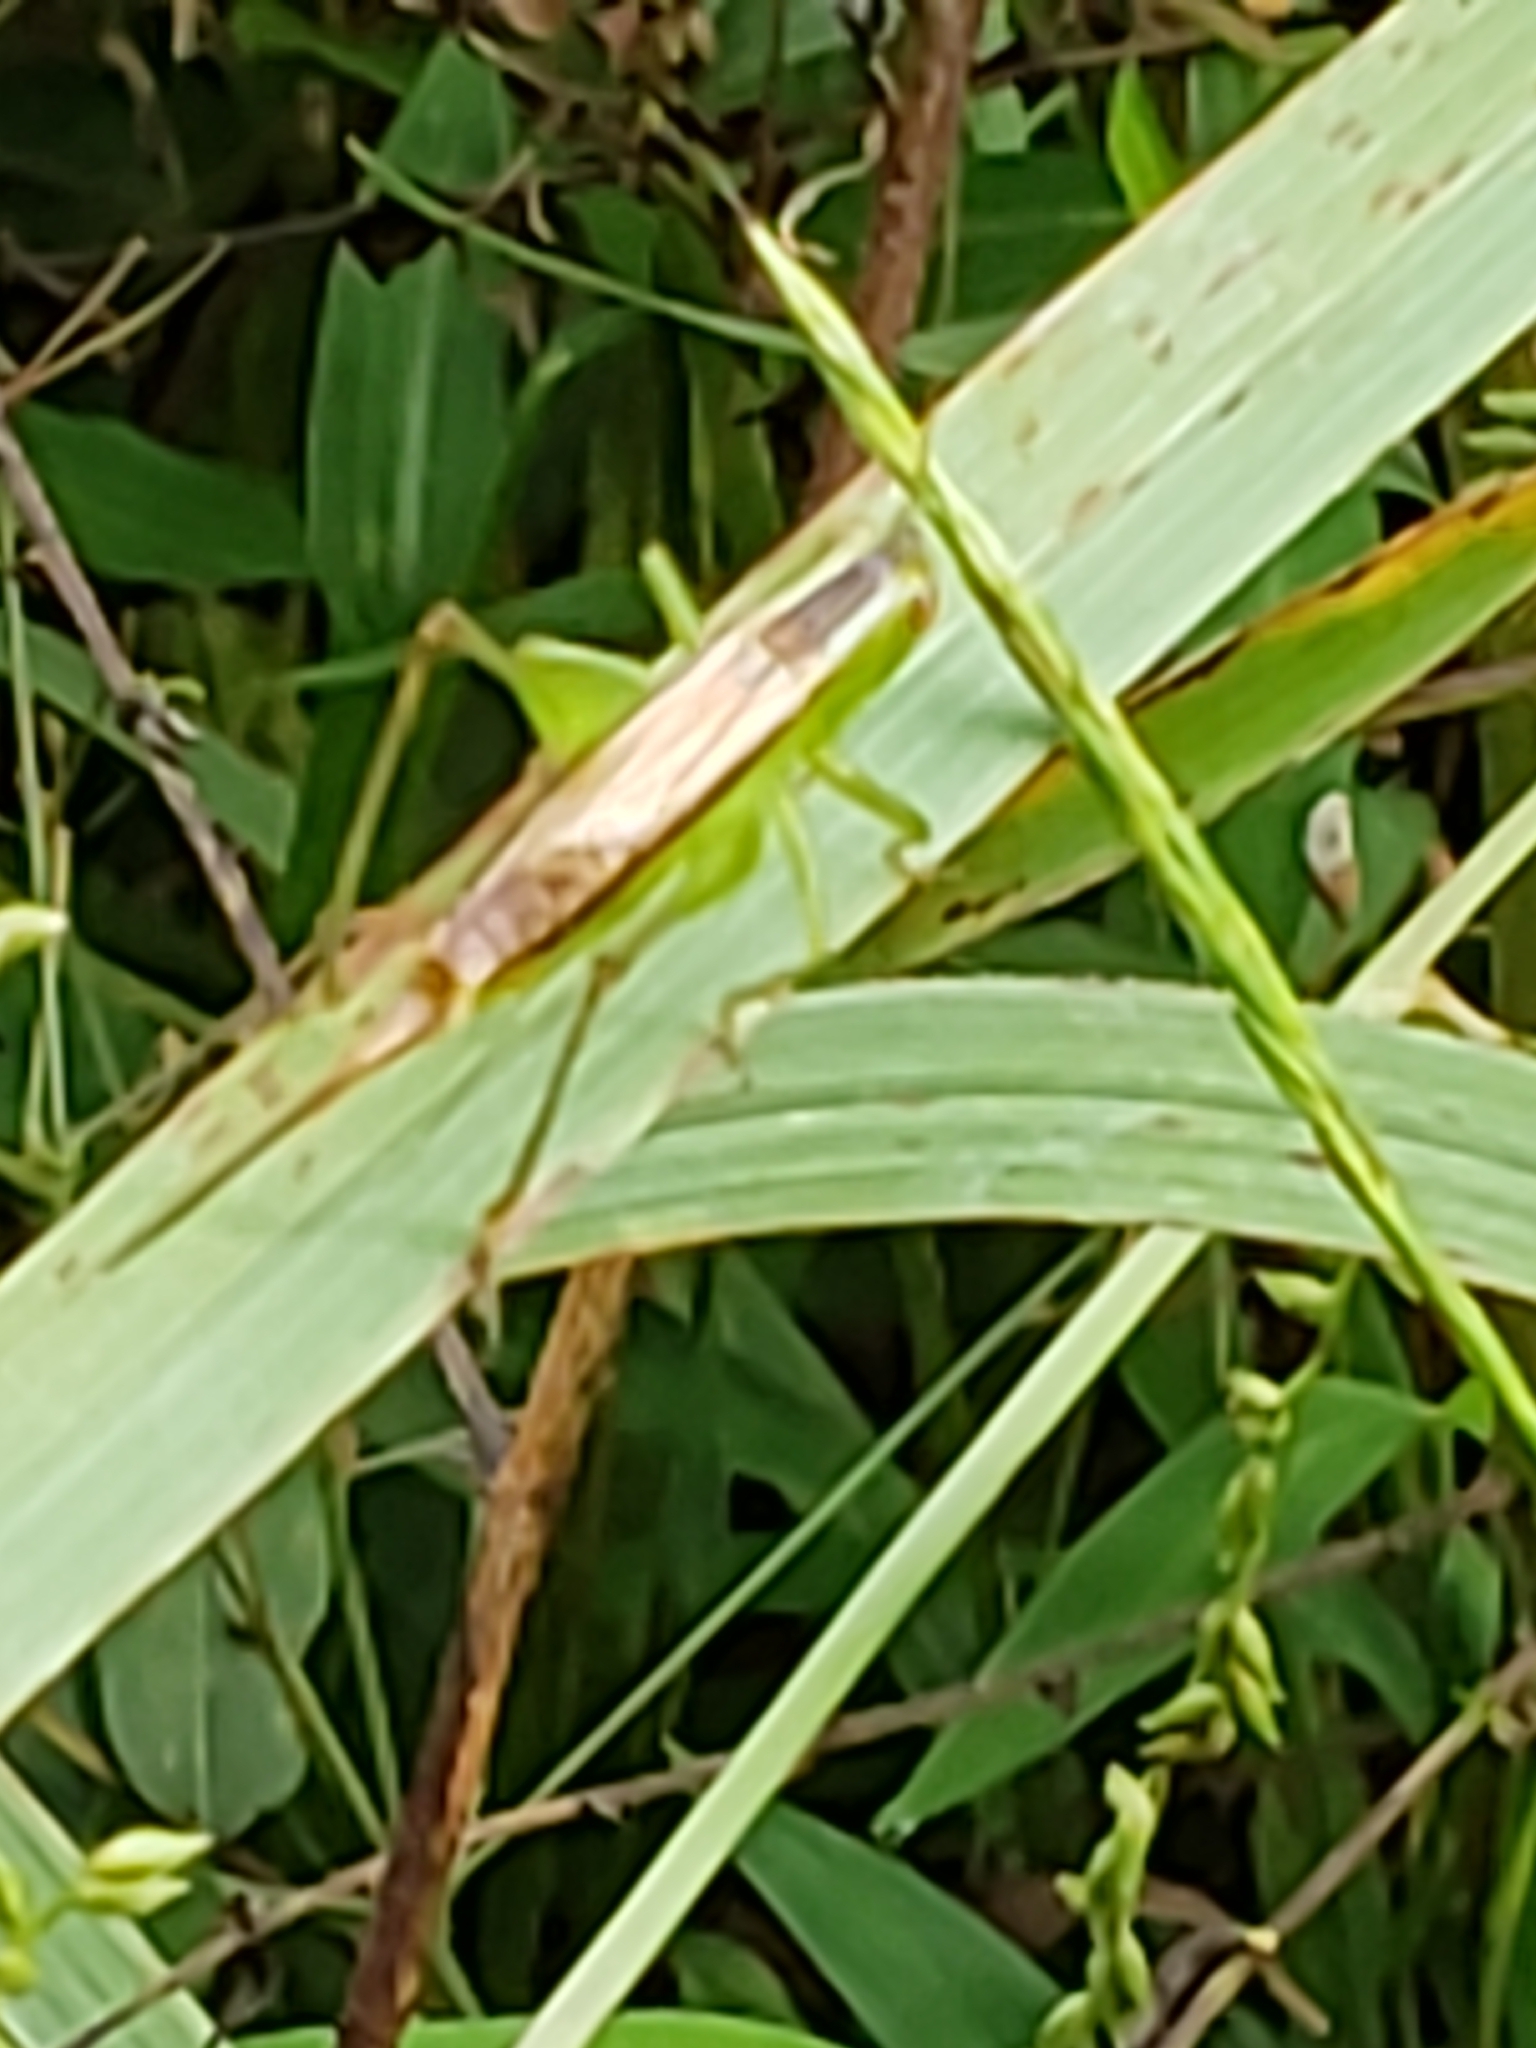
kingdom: Animalia
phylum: Arthropoda
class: Insecta
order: Orthoptera
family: Tettigoniidae
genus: Conocephalus
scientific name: Conocephalus brevipennis
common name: Short-winged meadow katydid
